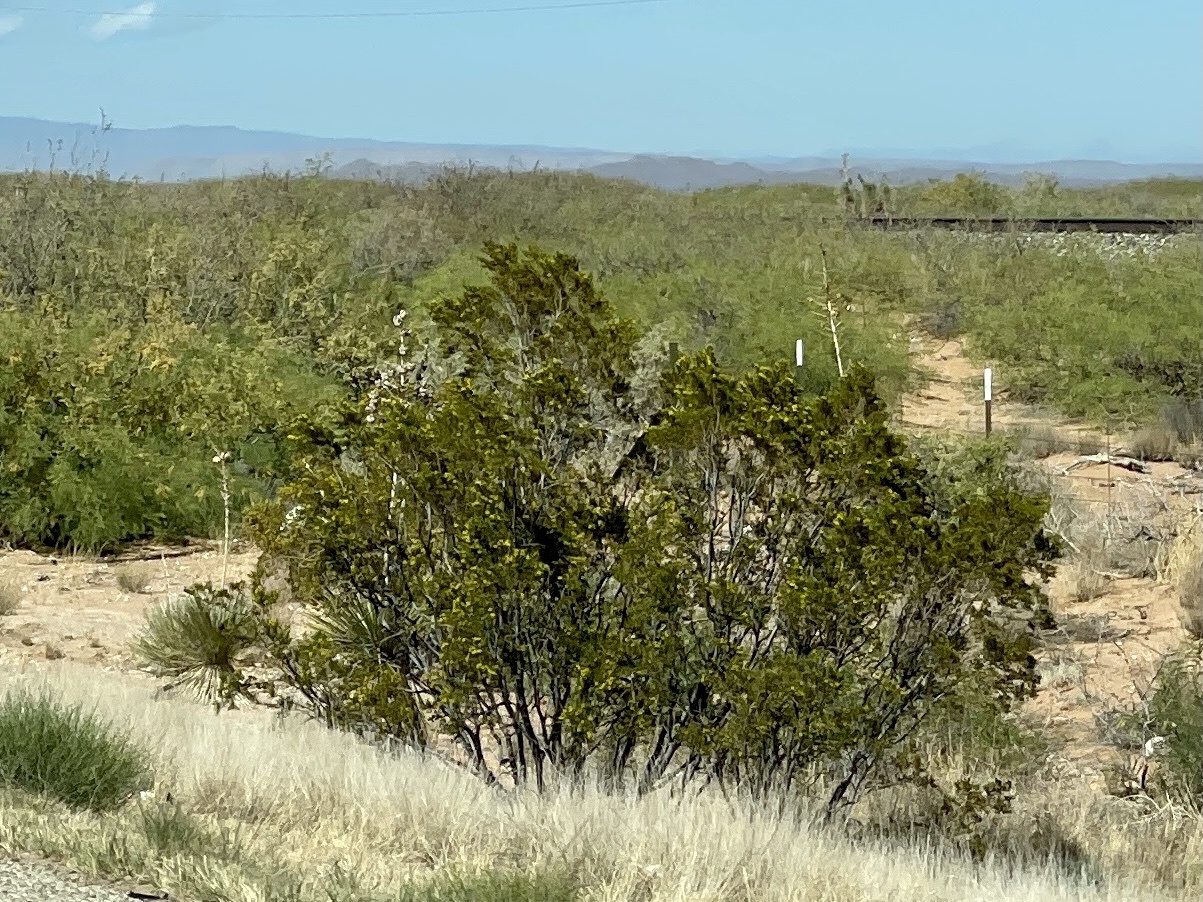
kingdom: Plantae
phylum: Tracheophyta
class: Magnoliopsida
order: Zygophyllales
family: Zygophyllaceae
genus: Larrea
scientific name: Larrea tridentata
